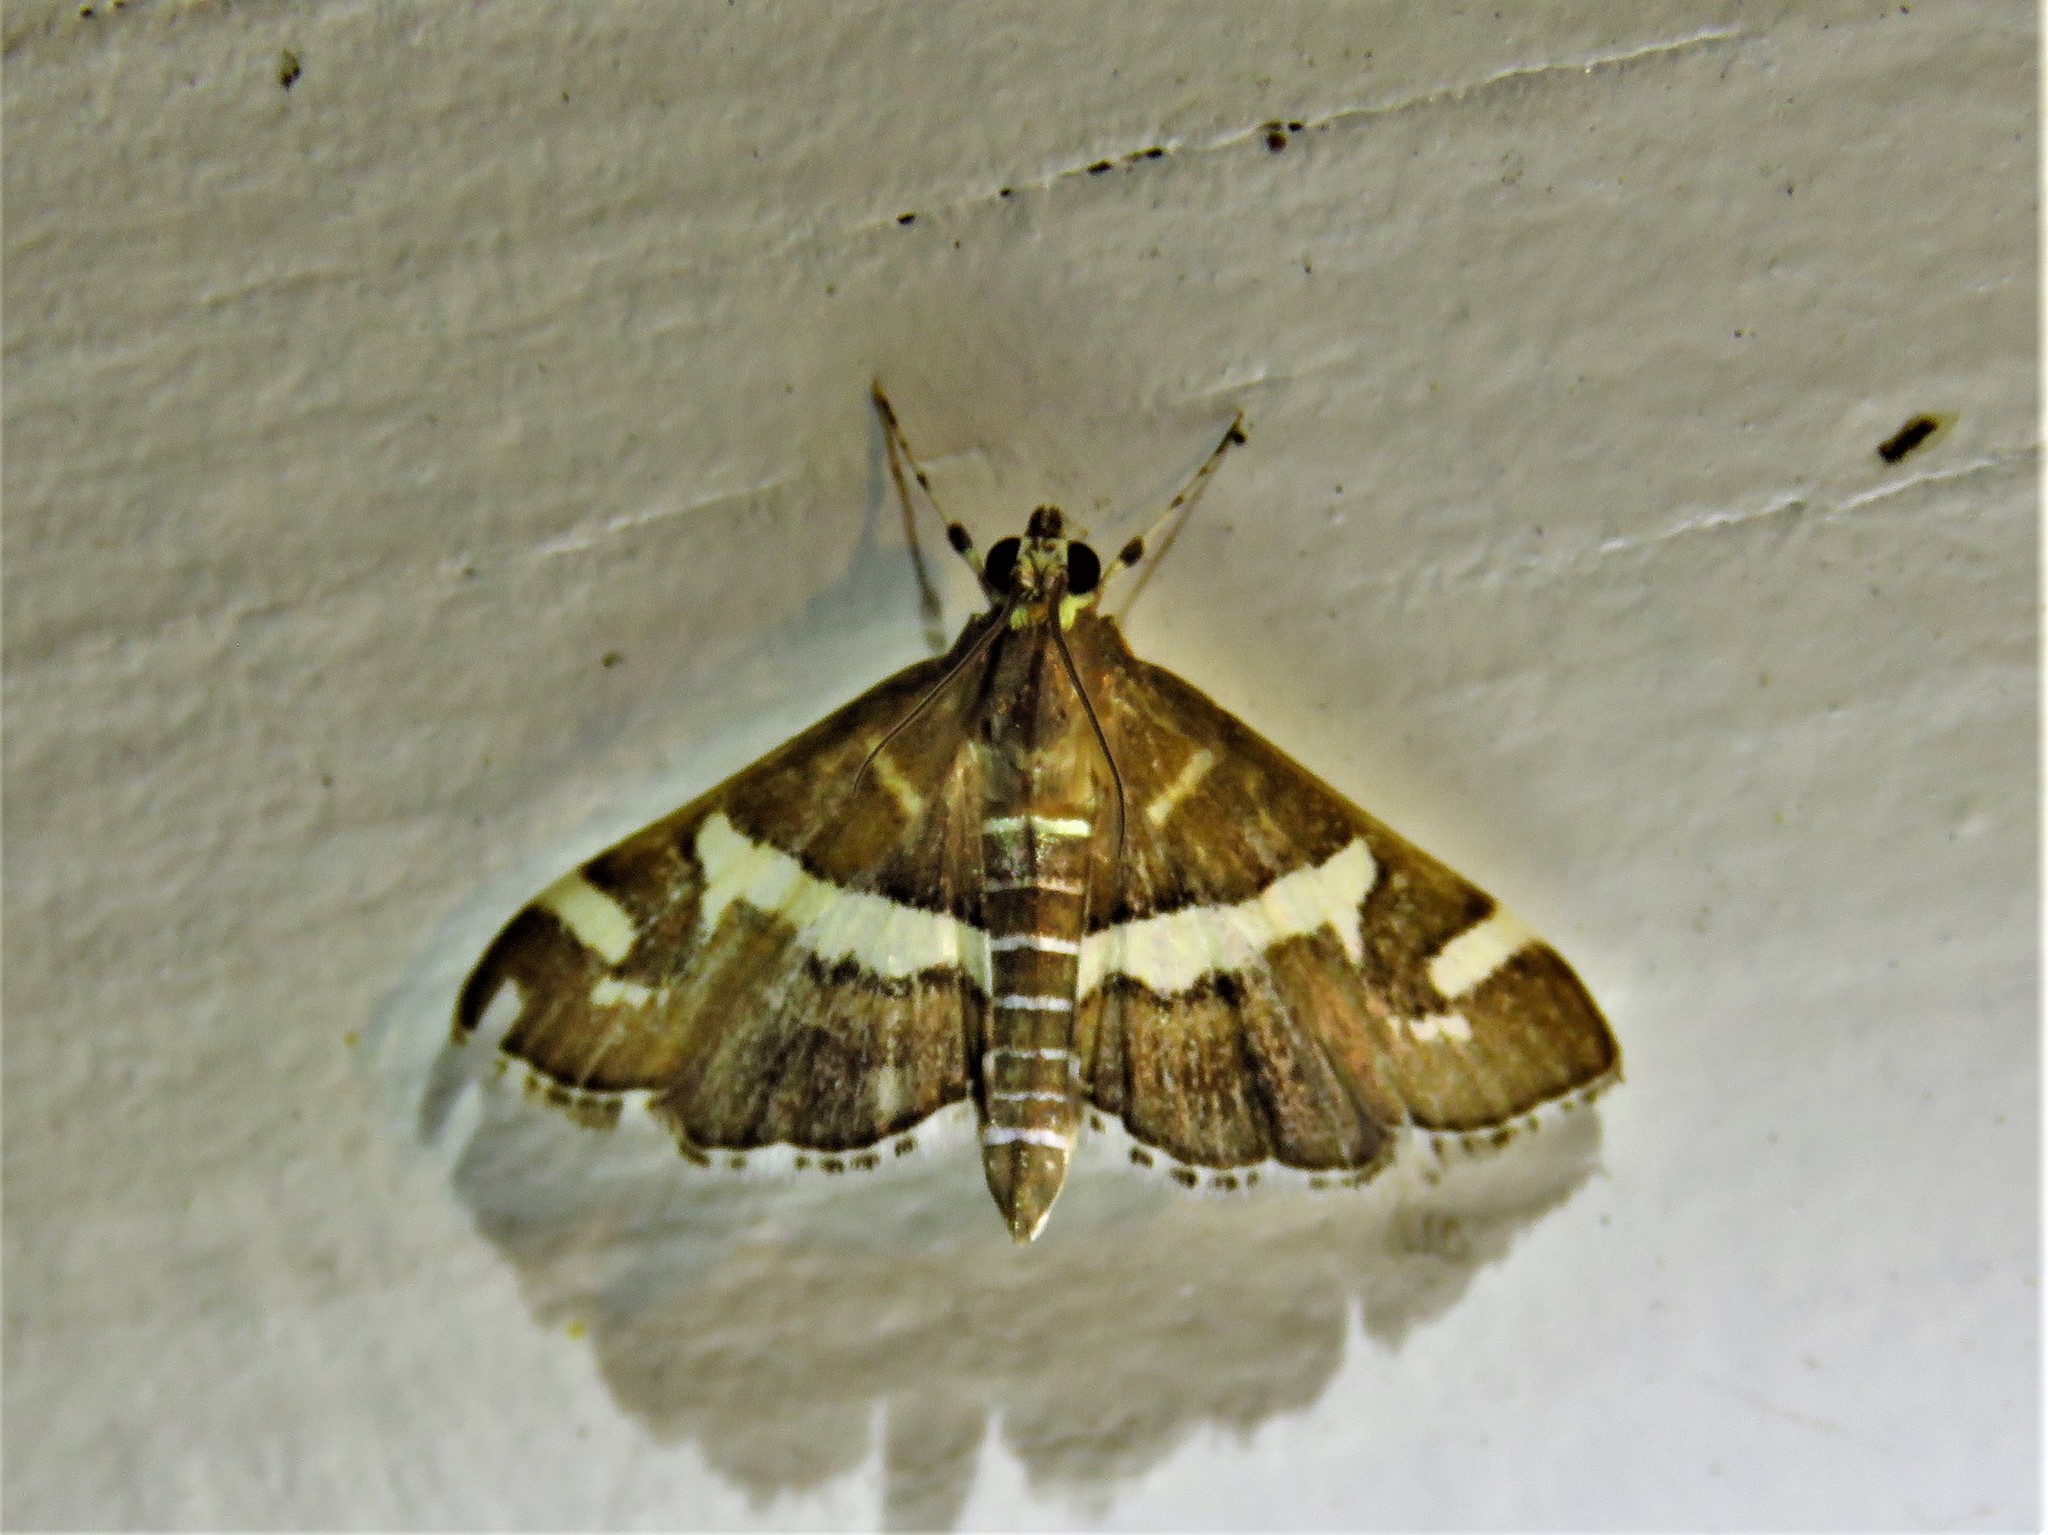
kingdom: Animalia
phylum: Arthropoda
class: Insecta
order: Lepidoptera
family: Crambidae
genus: Spoladea
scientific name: Spoladea recurvalis
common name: Beet webworm moth
